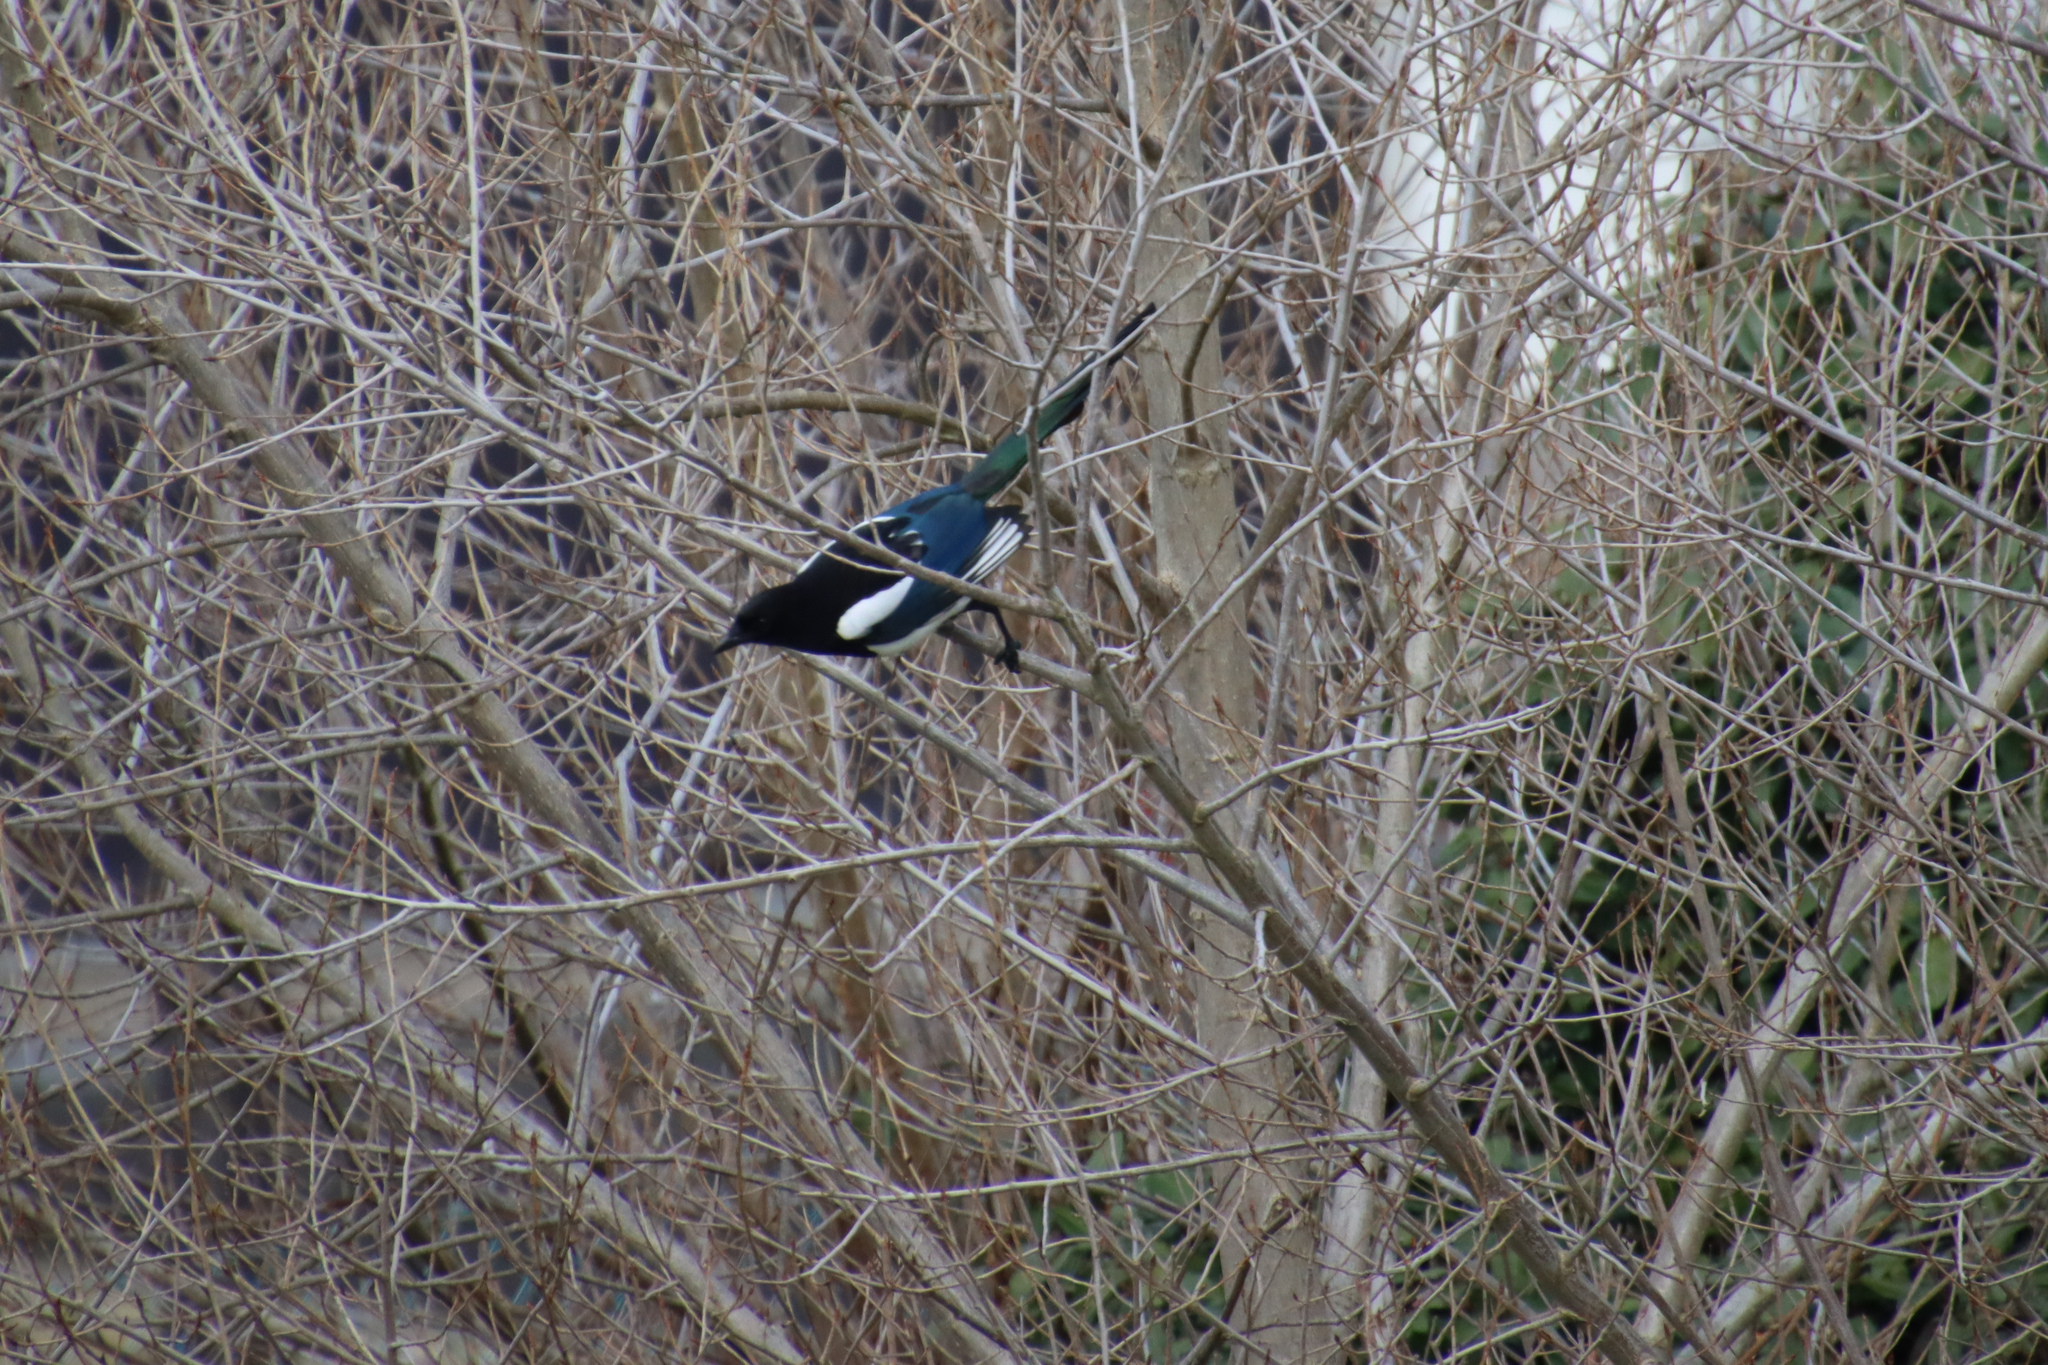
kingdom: Animalia
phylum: Chordata
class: Aves
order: Passeriformes
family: Corvidae
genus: Pica
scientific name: Pica pica
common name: Eurasian magpie
